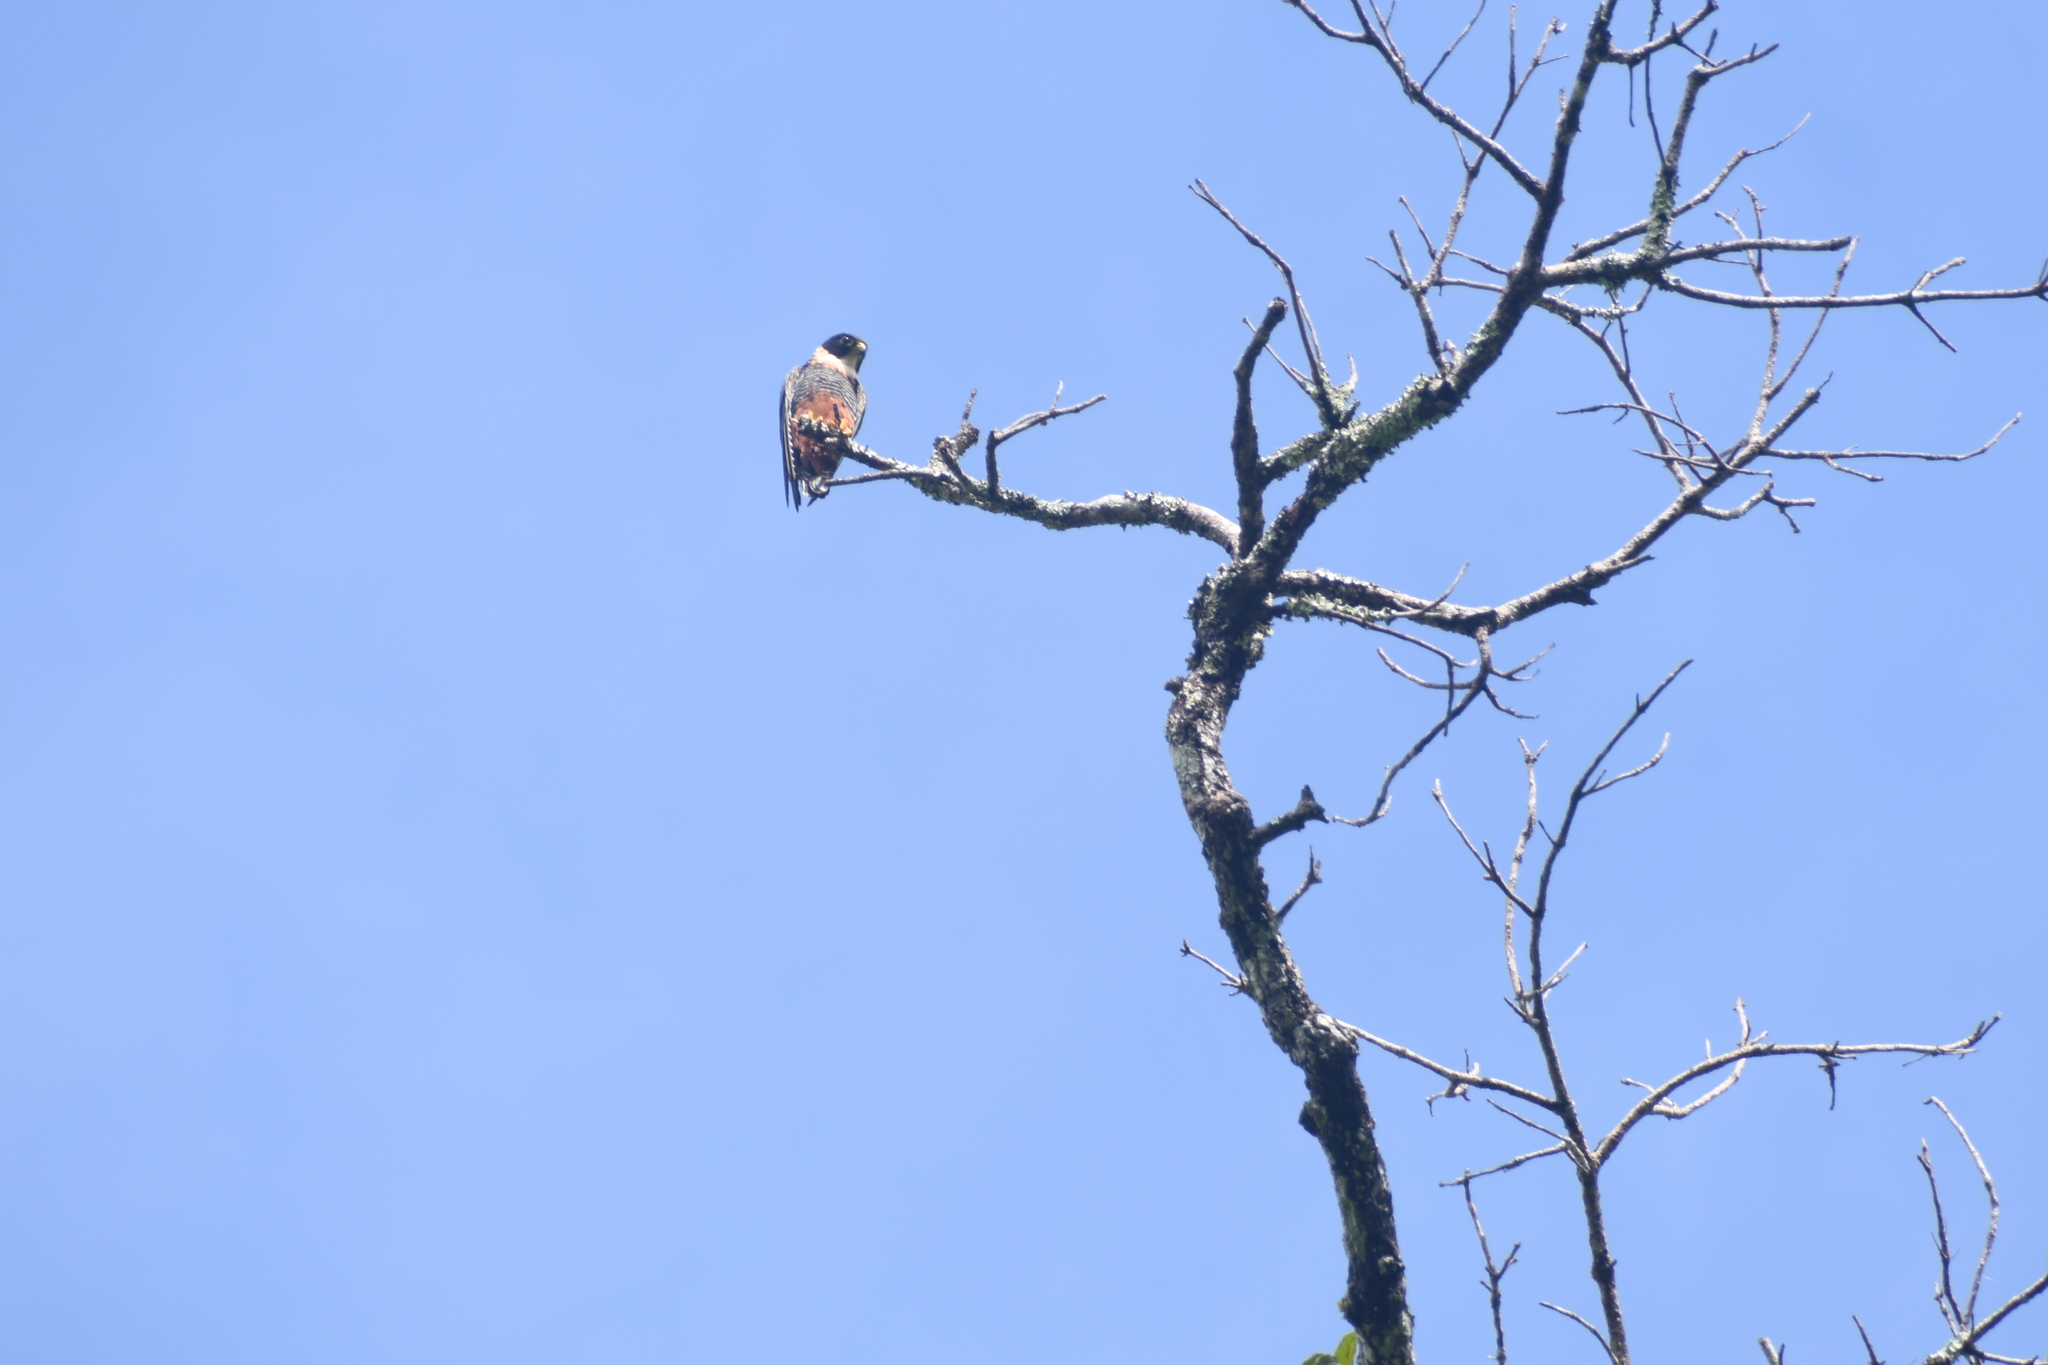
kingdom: Animalia
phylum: Chordata
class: Aves
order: Falconiformes
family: Falconidae
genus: Falco
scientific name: Falco rufigularis
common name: Bat falcon
